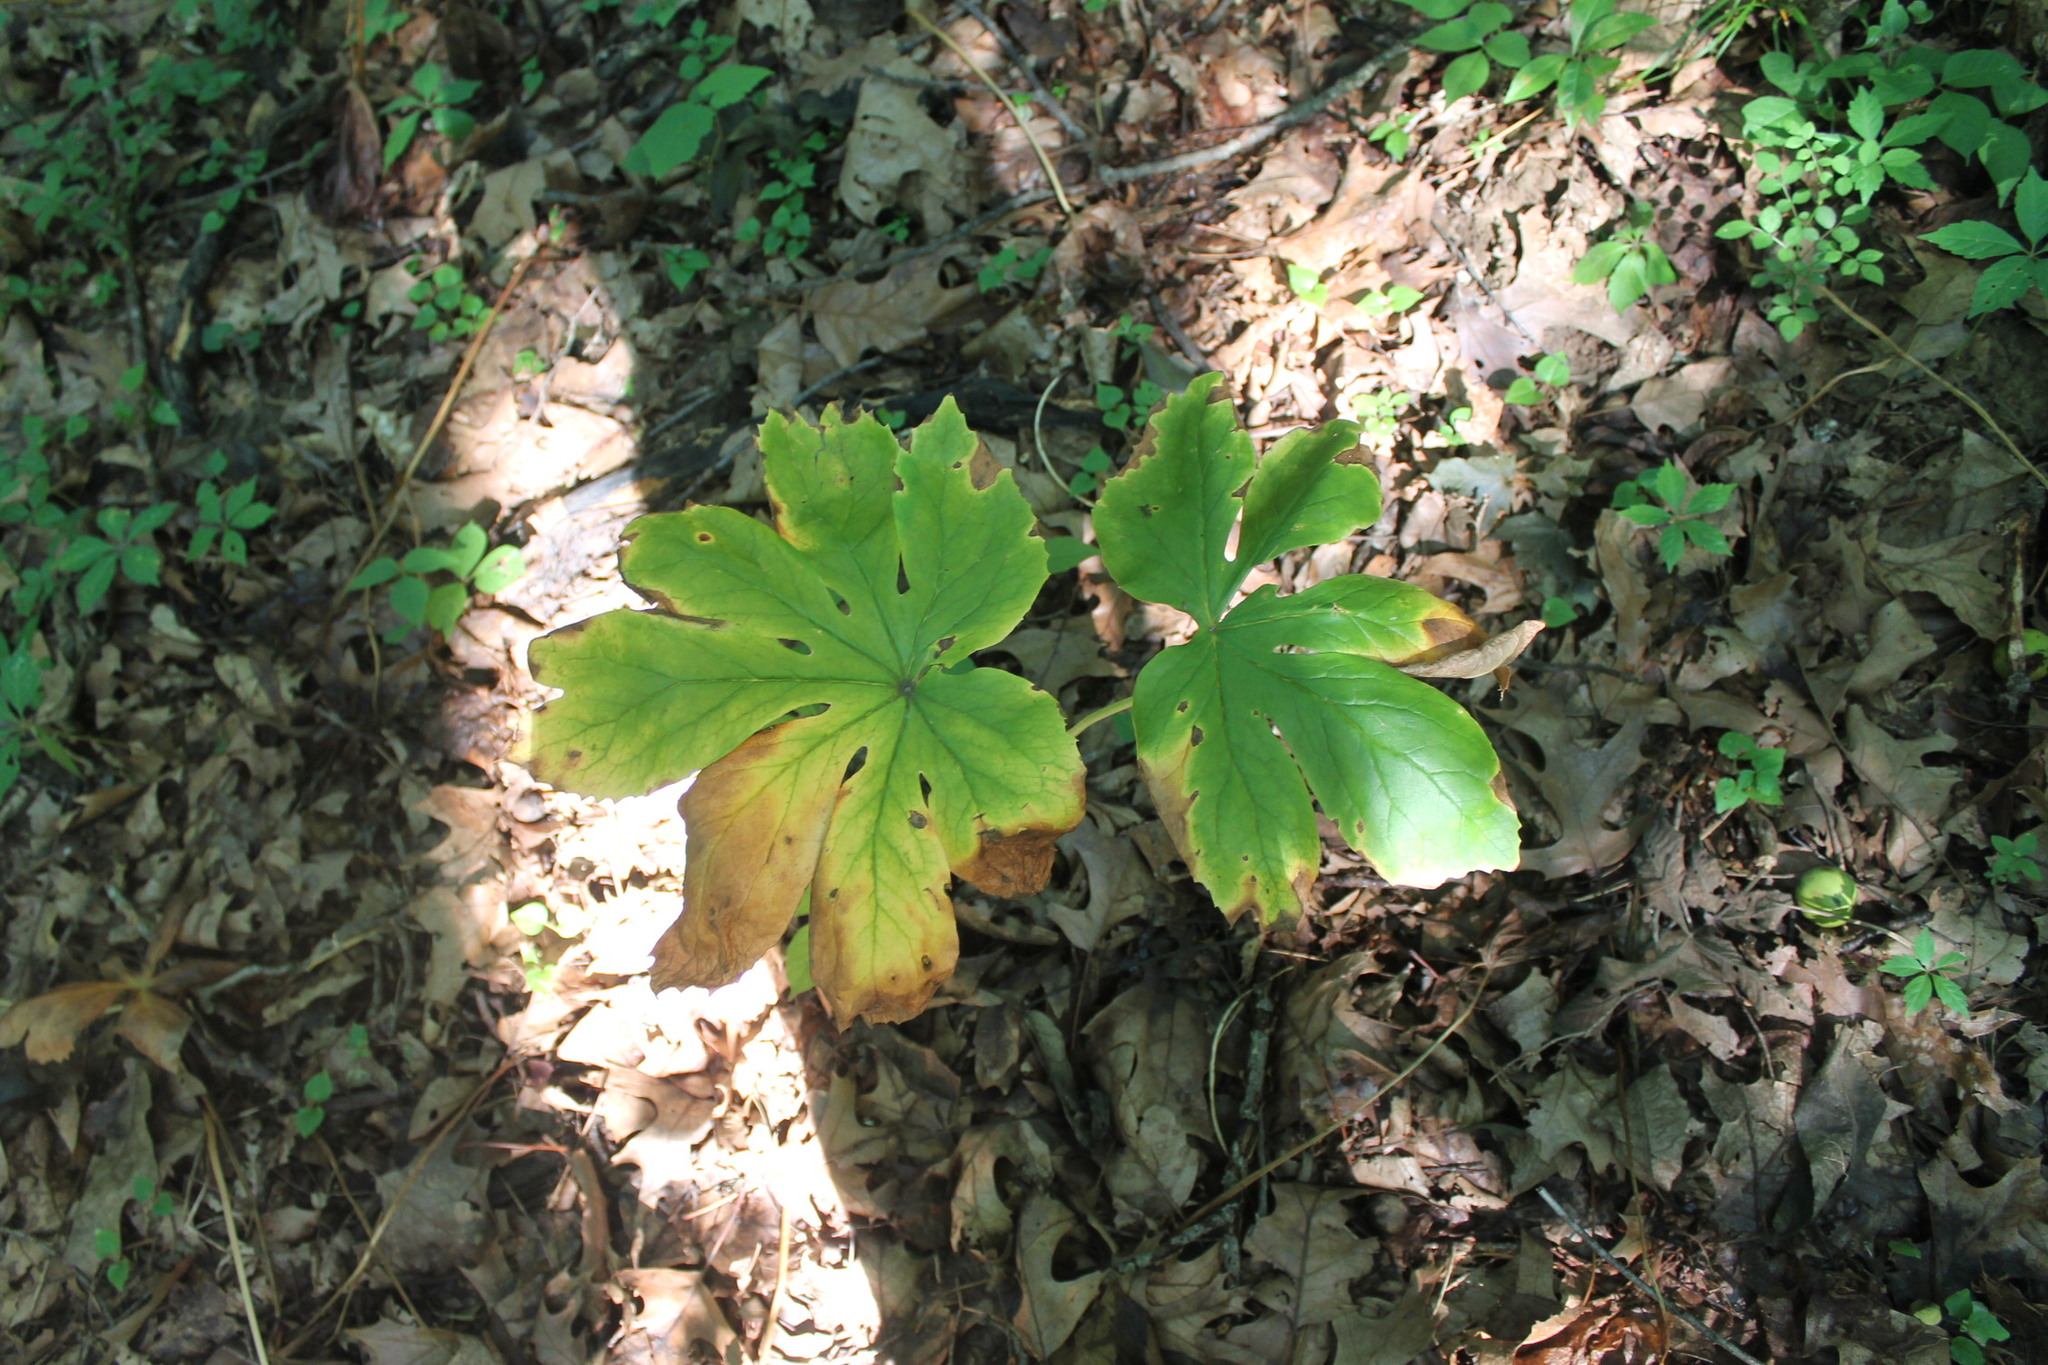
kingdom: Plantae
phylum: Tracheophyta
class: Magnoliopsida
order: Ranunculales
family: Berberidaceae
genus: Podophyllum
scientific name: Podophyllum peltatum
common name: Wild mandrake
